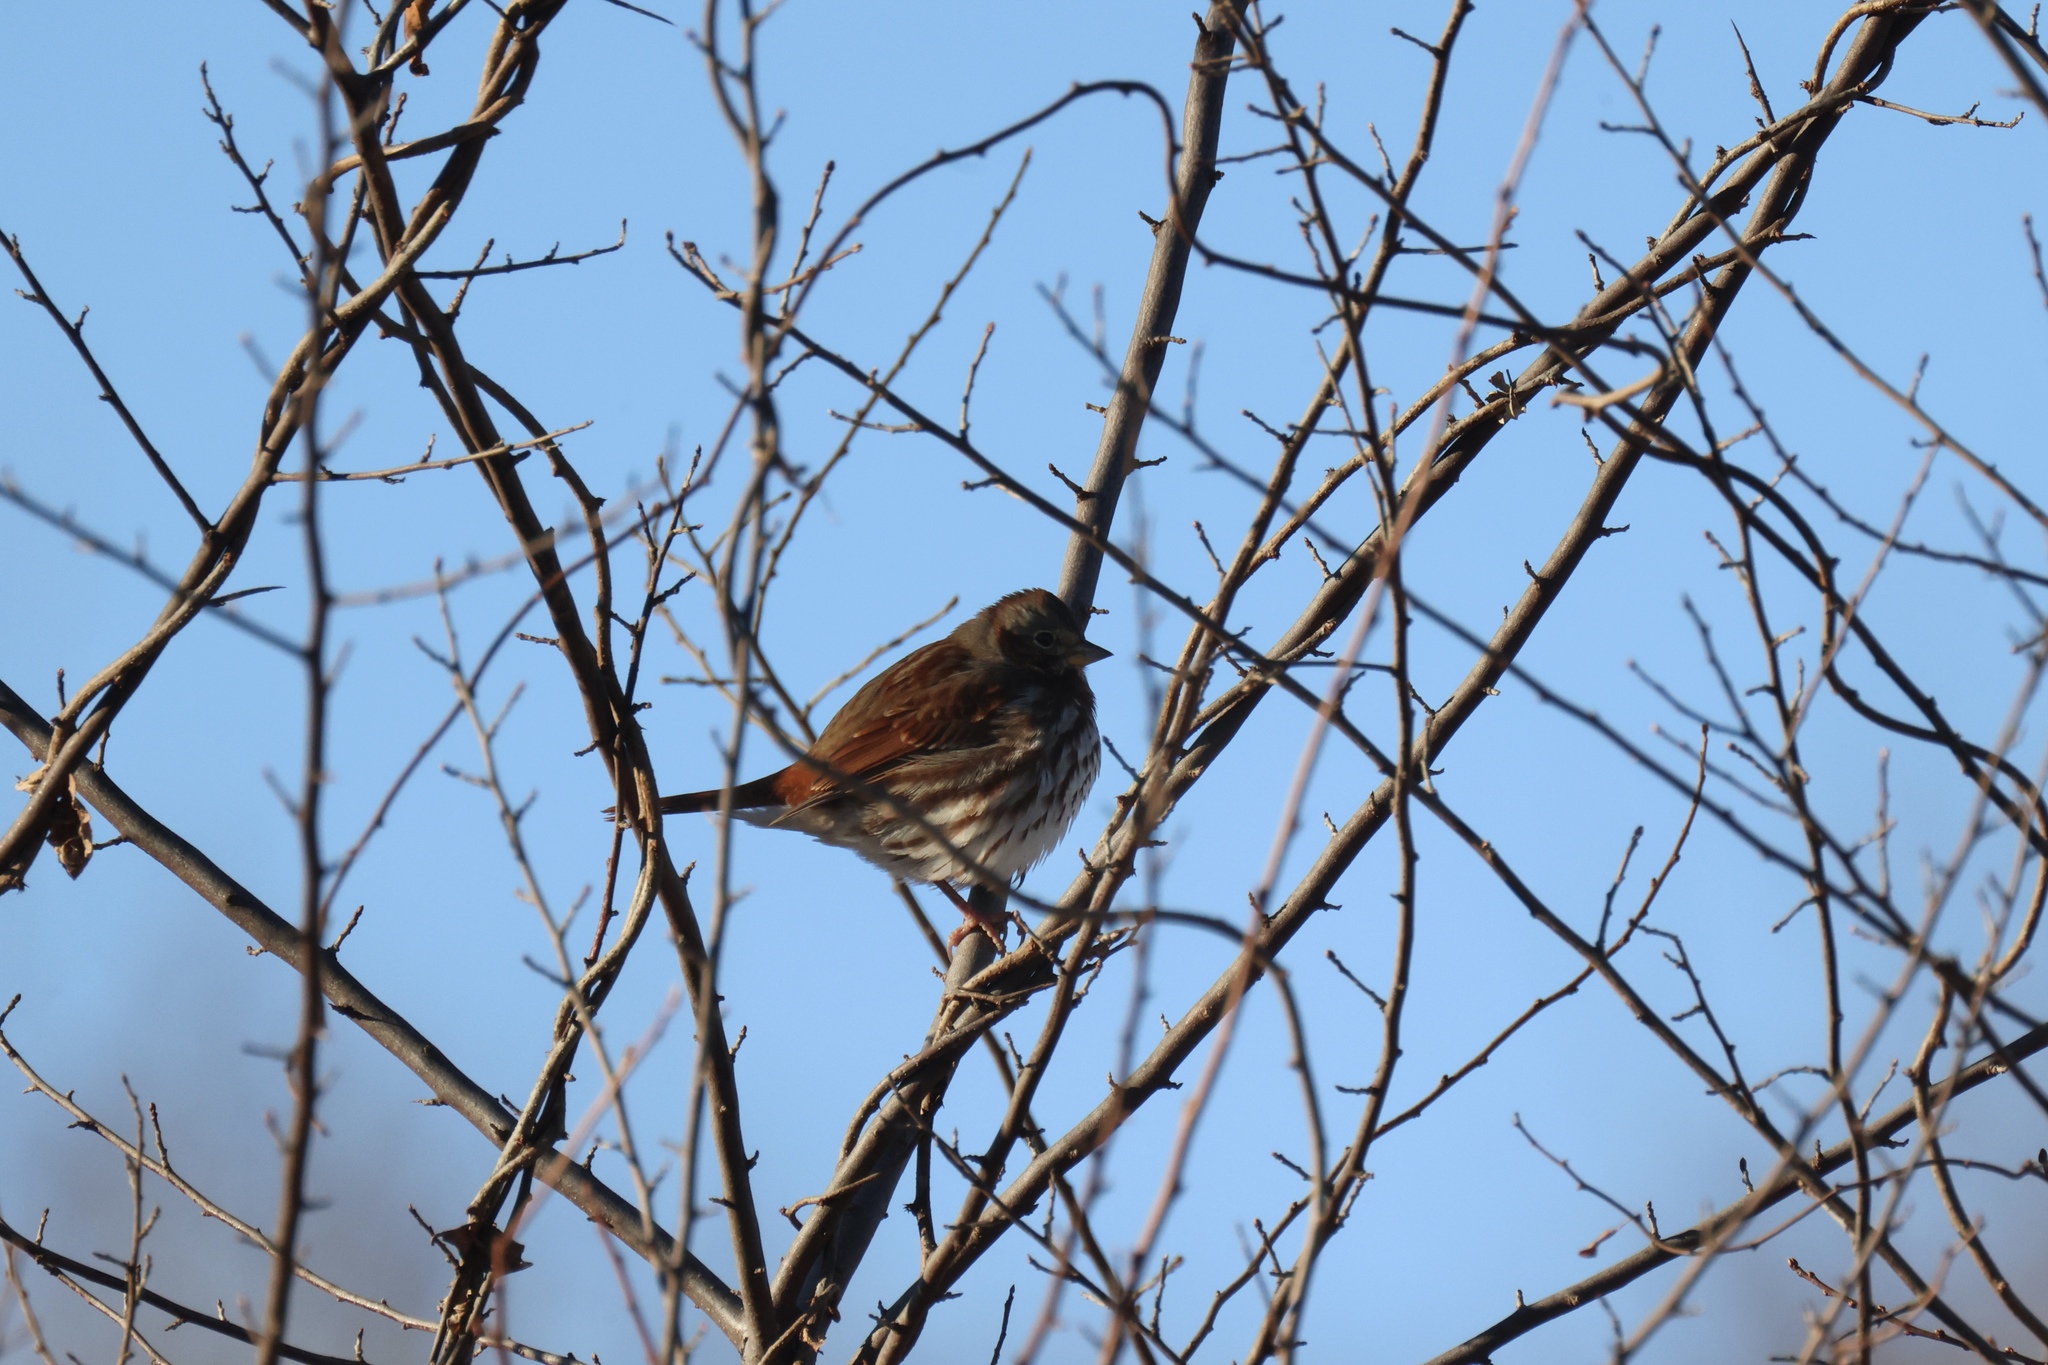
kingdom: Animalia
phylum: Chordata
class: Aves
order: Passeriformes
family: Passerellidae
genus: Passerella
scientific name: Passerella iliaca
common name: Fox sparrow
